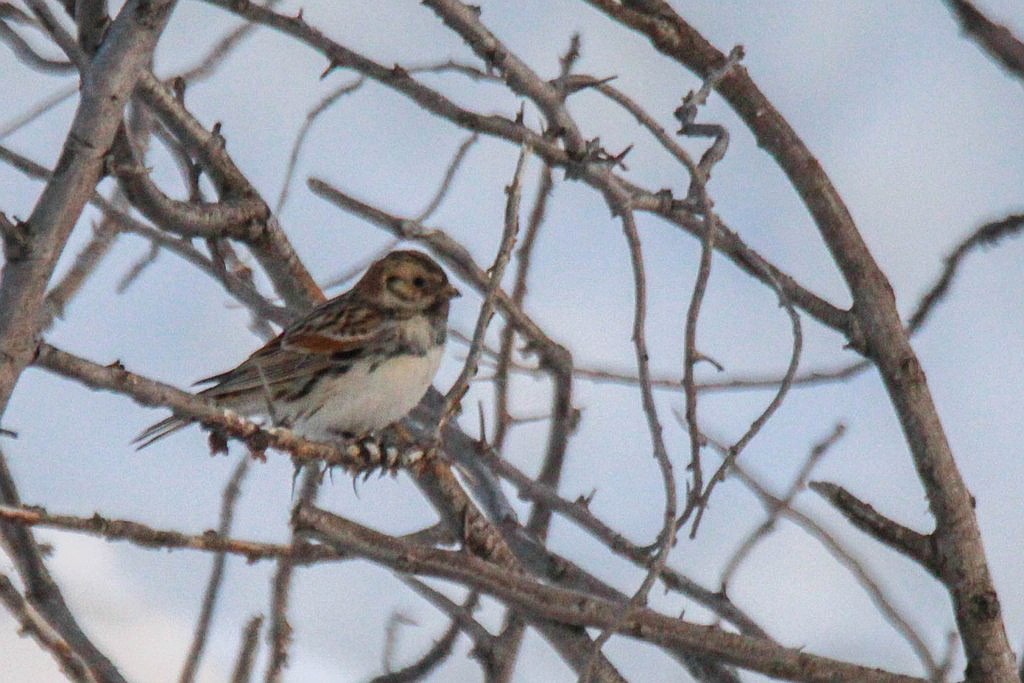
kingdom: Animalia
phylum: Chordata
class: Aves
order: Passeriformes
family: Calcariidae
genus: Calcarius
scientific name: Calcarius lapponicus
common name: Lapland longspur
